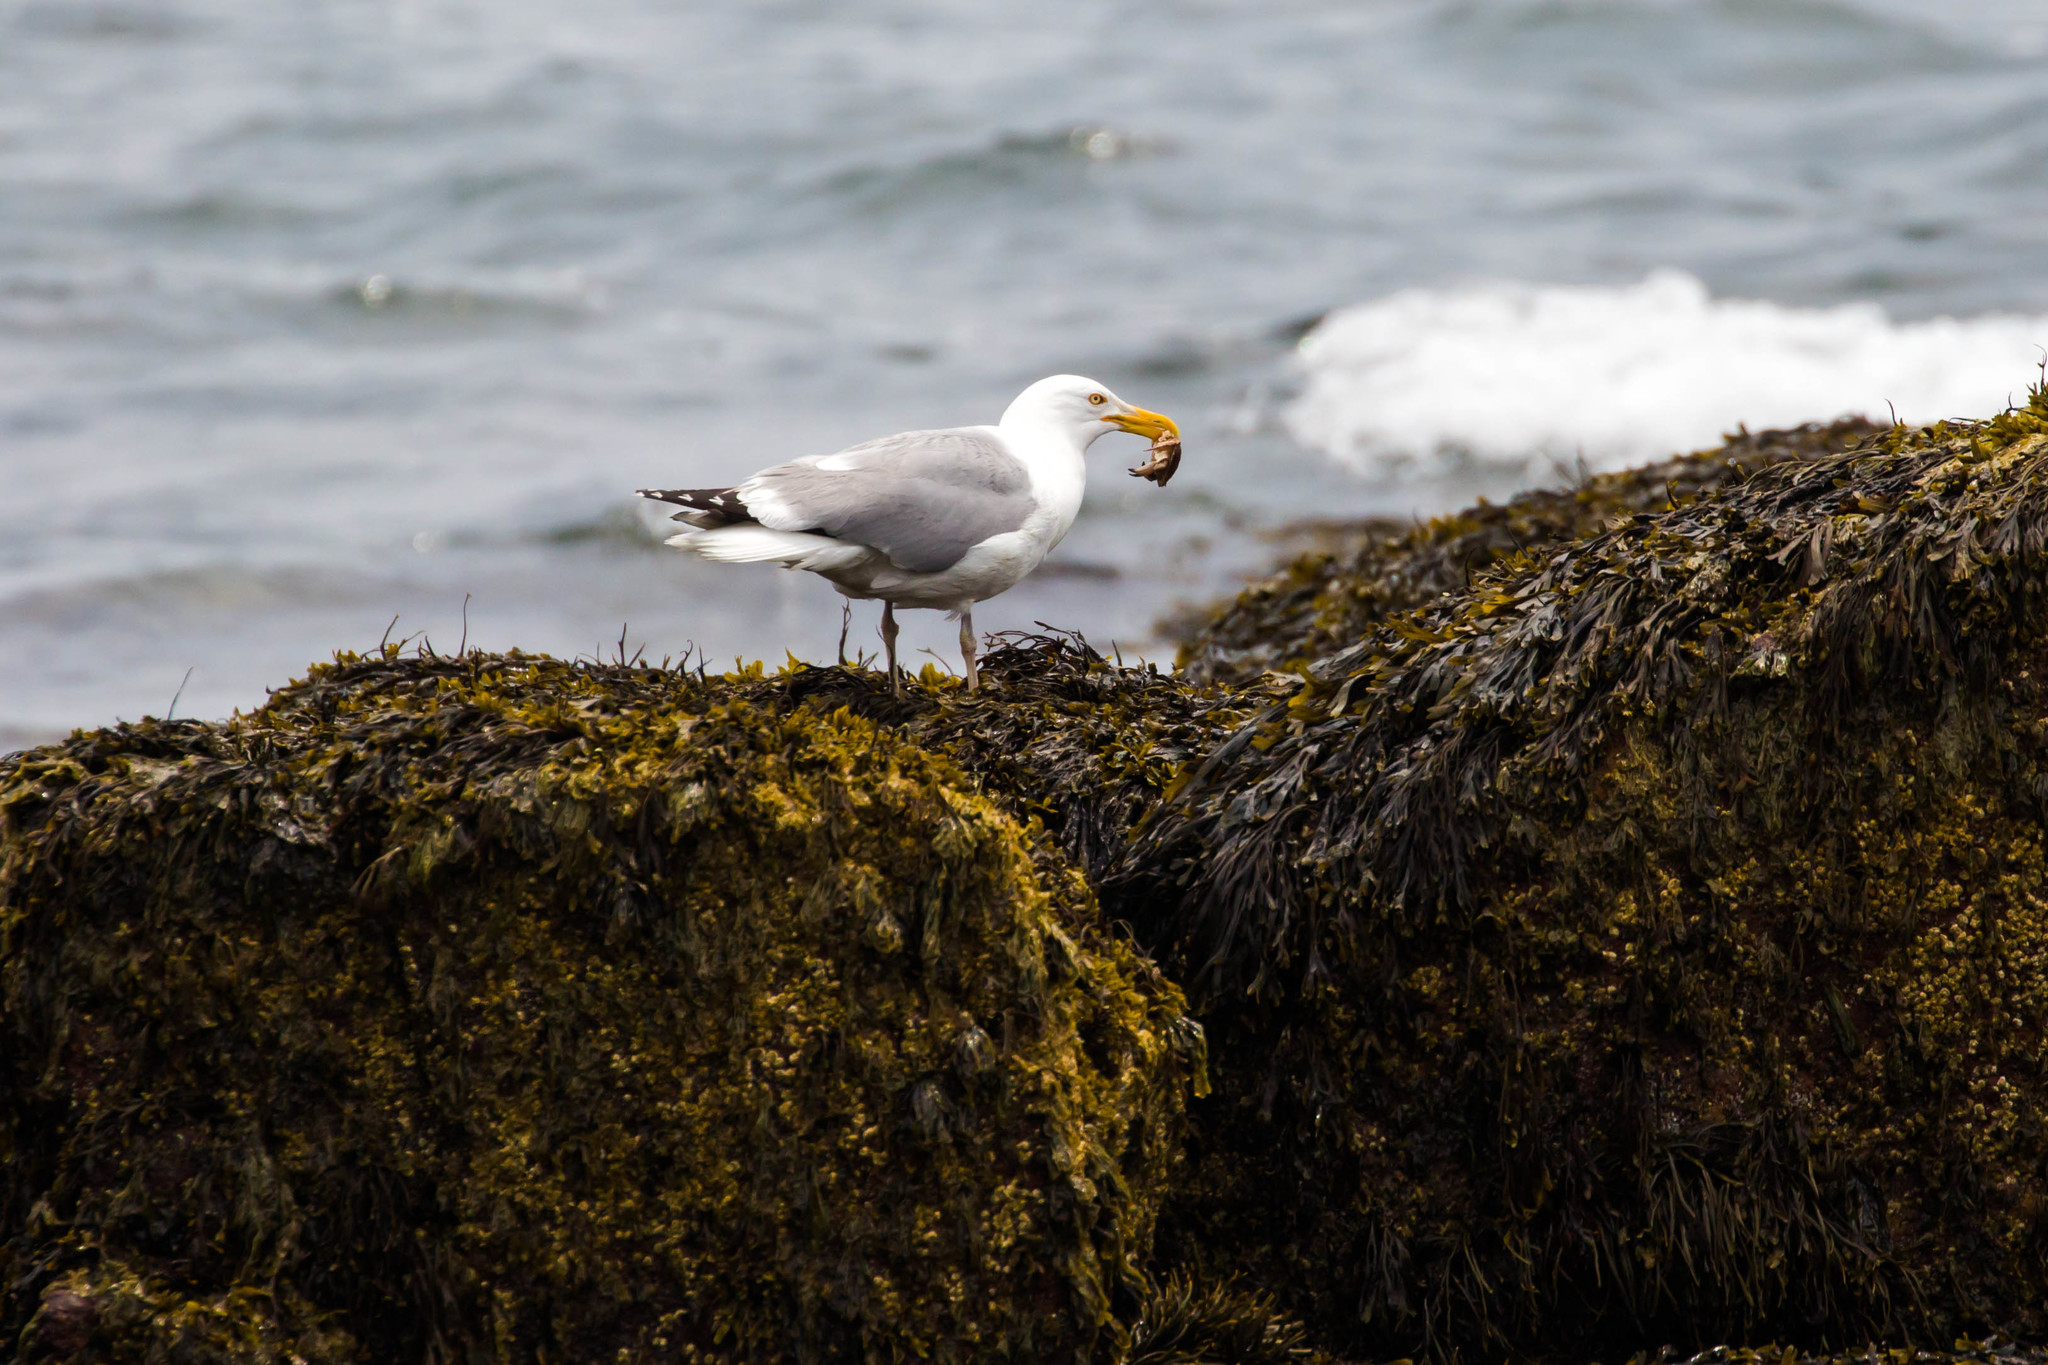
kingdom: Animalia
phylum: Chordata
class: Aves
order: Charadriiformes
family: Laridae
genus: Larus
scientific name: Larus argentatus
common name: Herring gull
